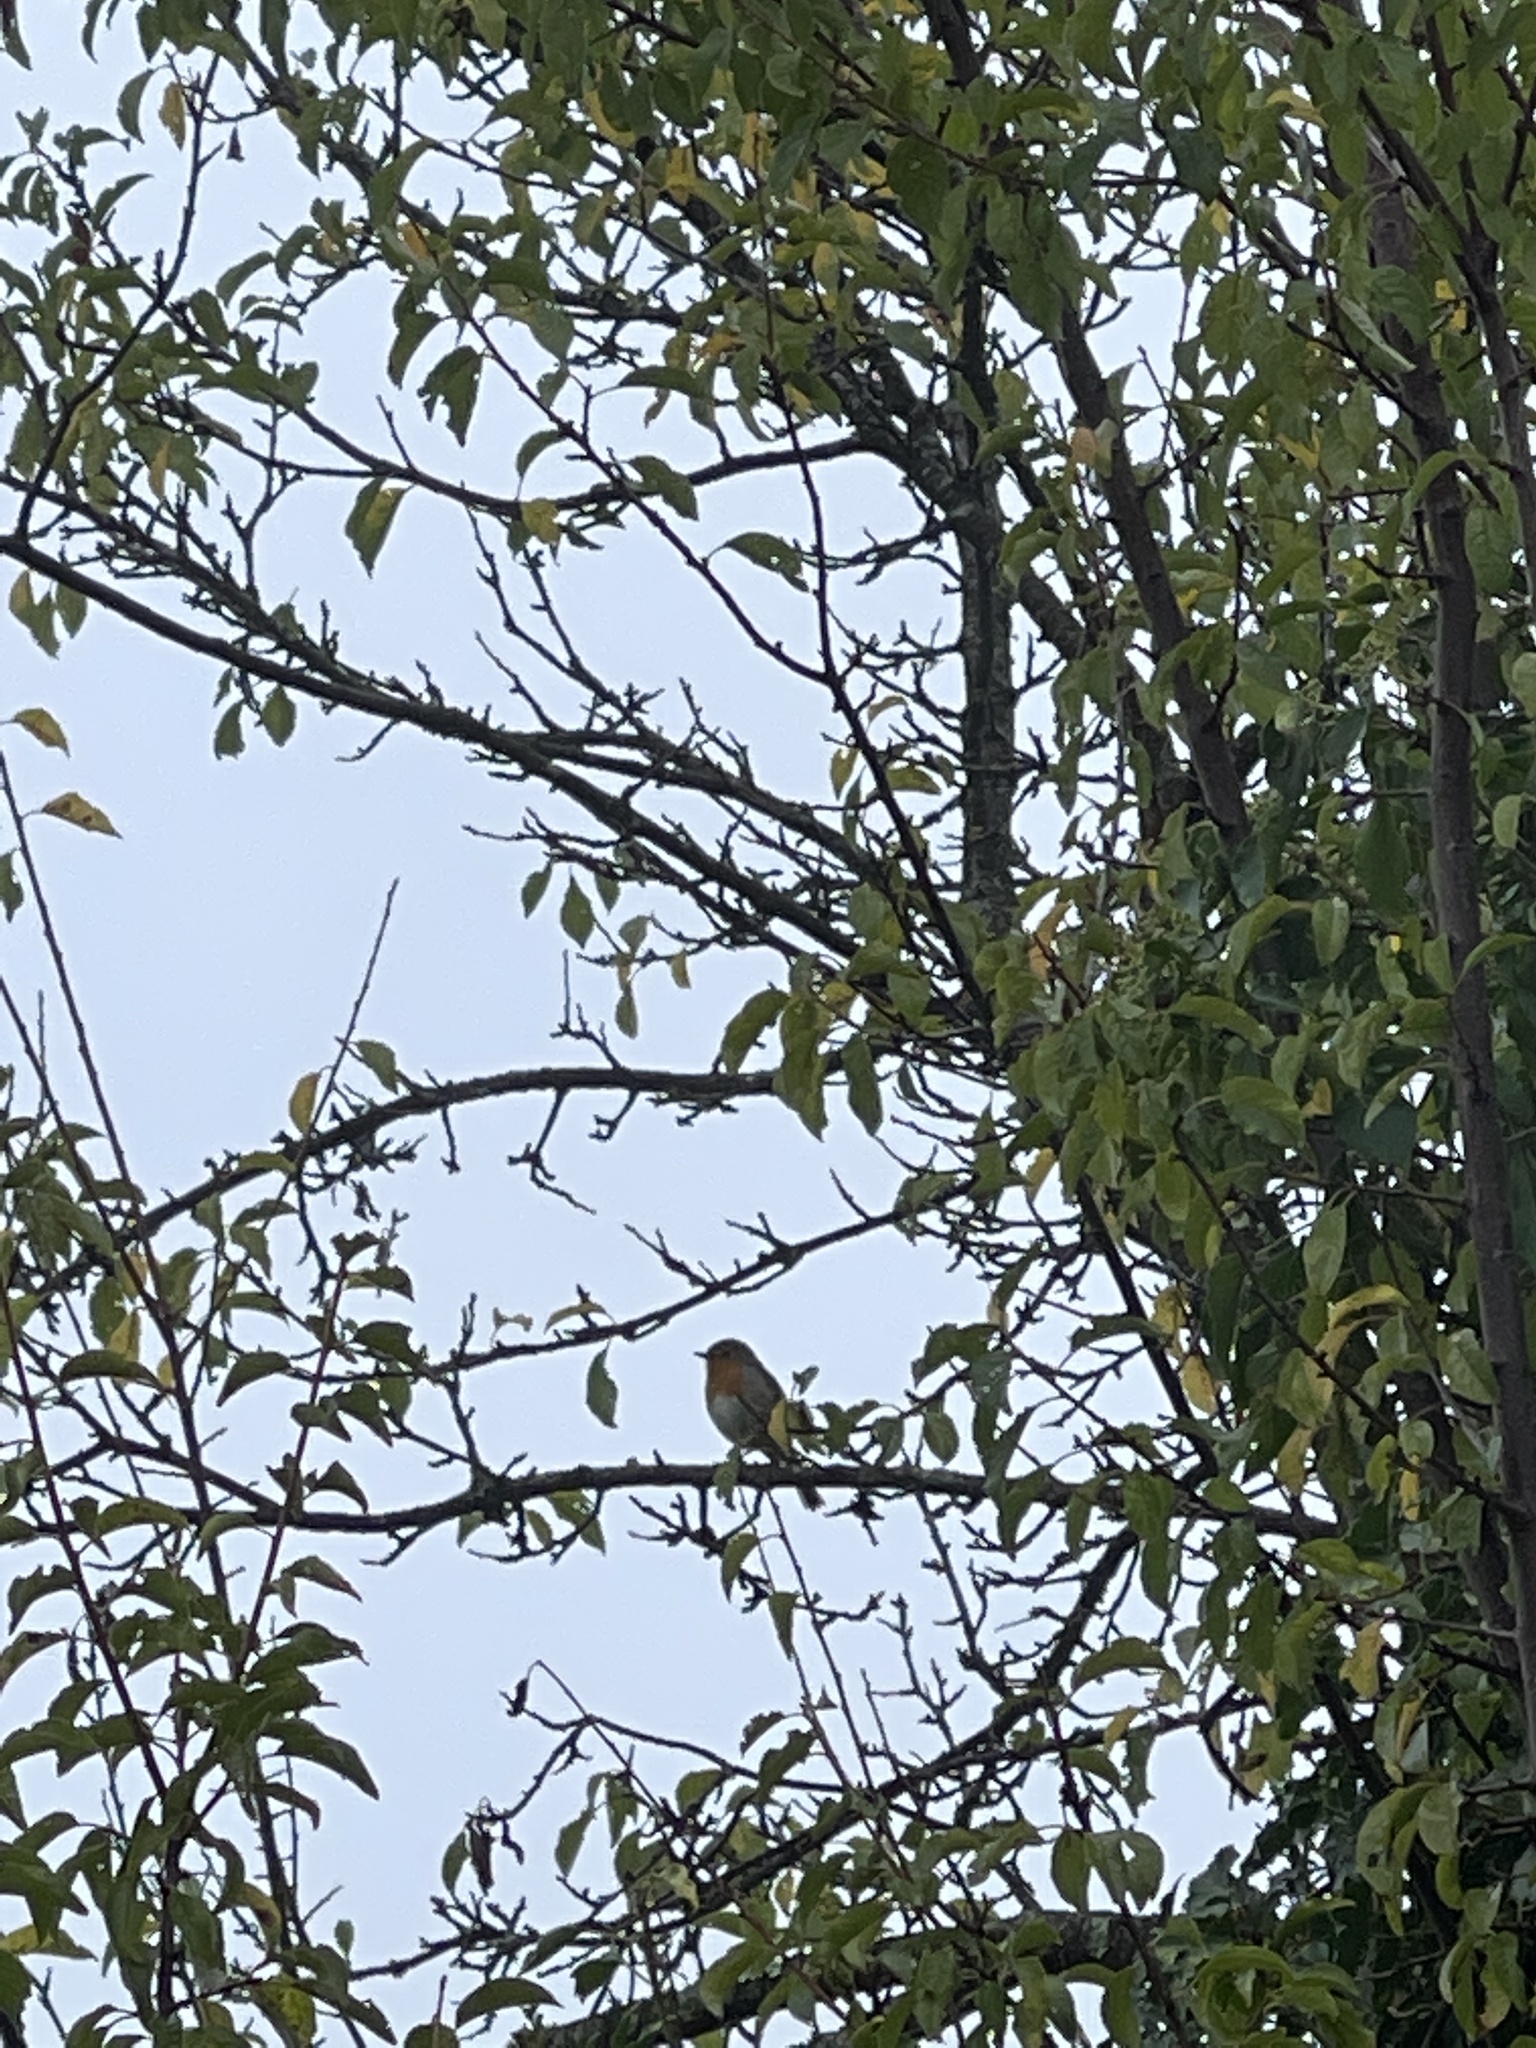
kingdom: Animalia
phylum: Chordata
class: Aves
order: Passeriformes
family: Muscicapidae
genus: Erithacus
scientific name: Erithacus rubecula
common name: European robin
